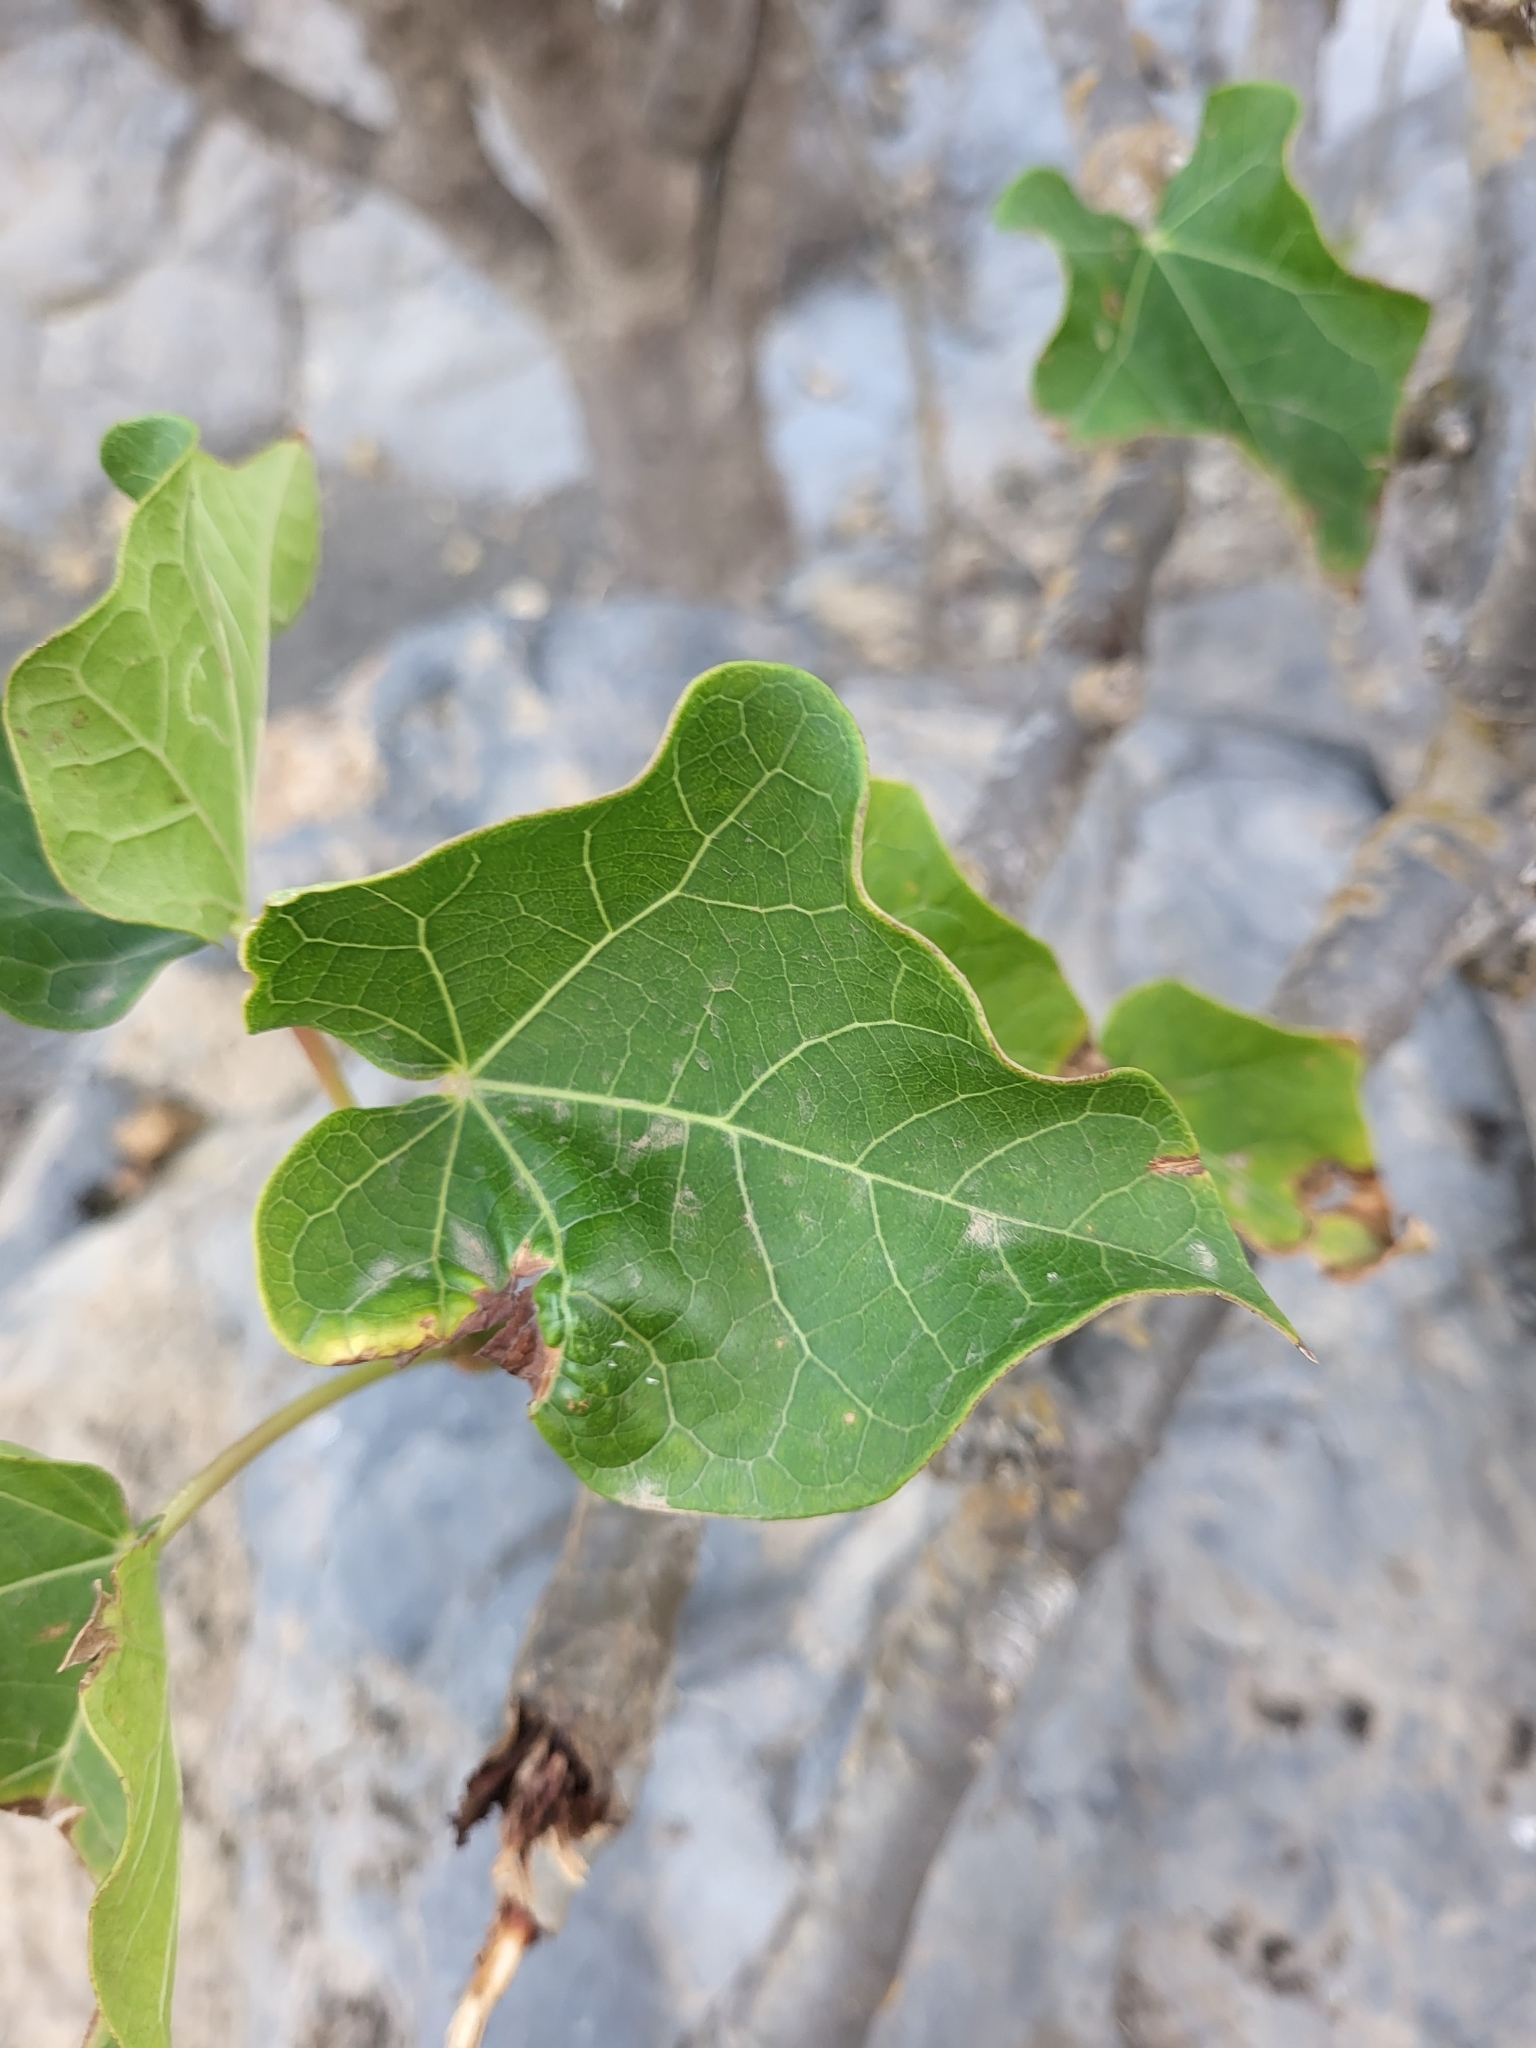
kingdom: Plantae
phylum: Tracheophyta
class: Magnoliopsida
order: Malpighiales
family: Euphorbiaceae
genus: Jatropha
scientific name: Jatropha curcas
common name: Barbados nut
